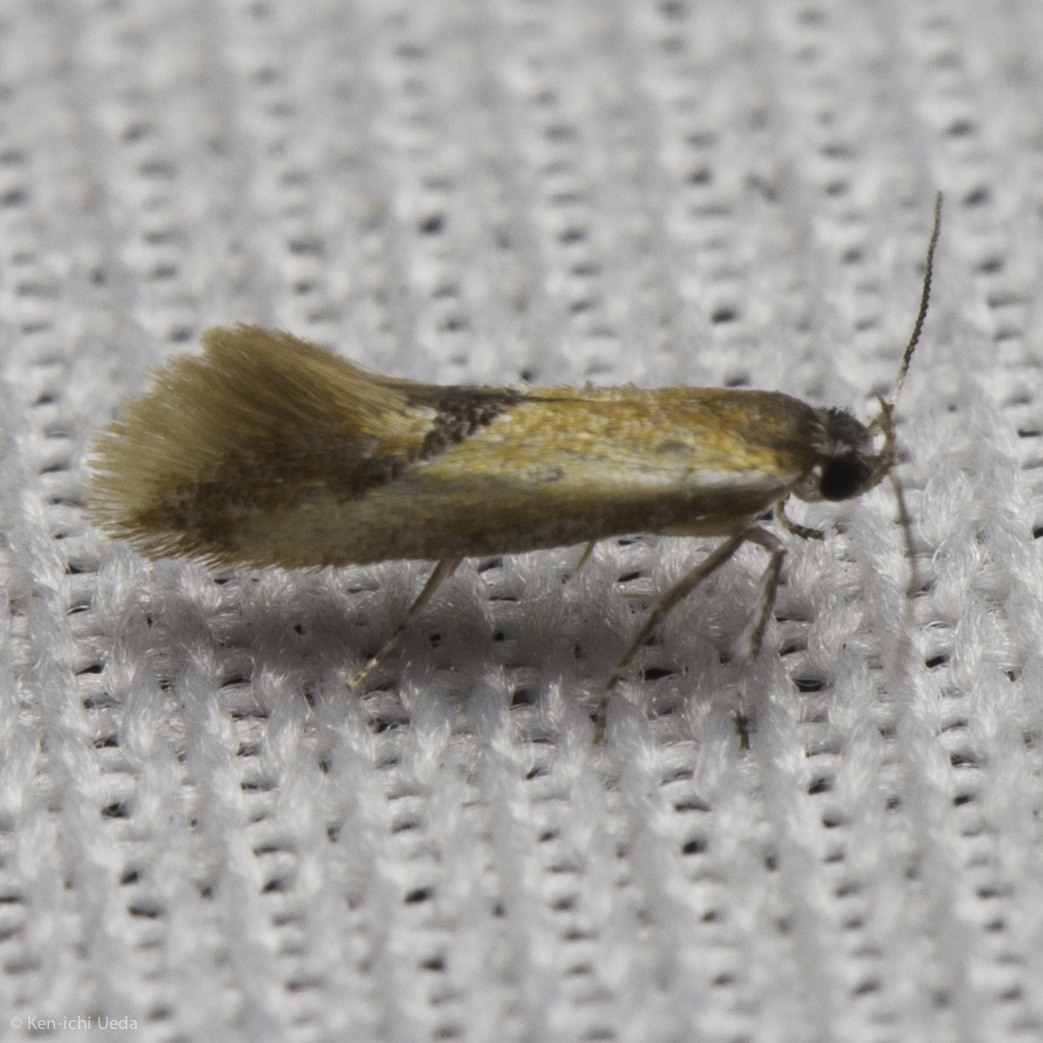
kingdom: Animalia
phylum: Arthropoda
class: Insecta
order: Lepidoptera
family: Oecophoridae
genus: Batia
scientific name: Batia lunaris
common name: Moth
